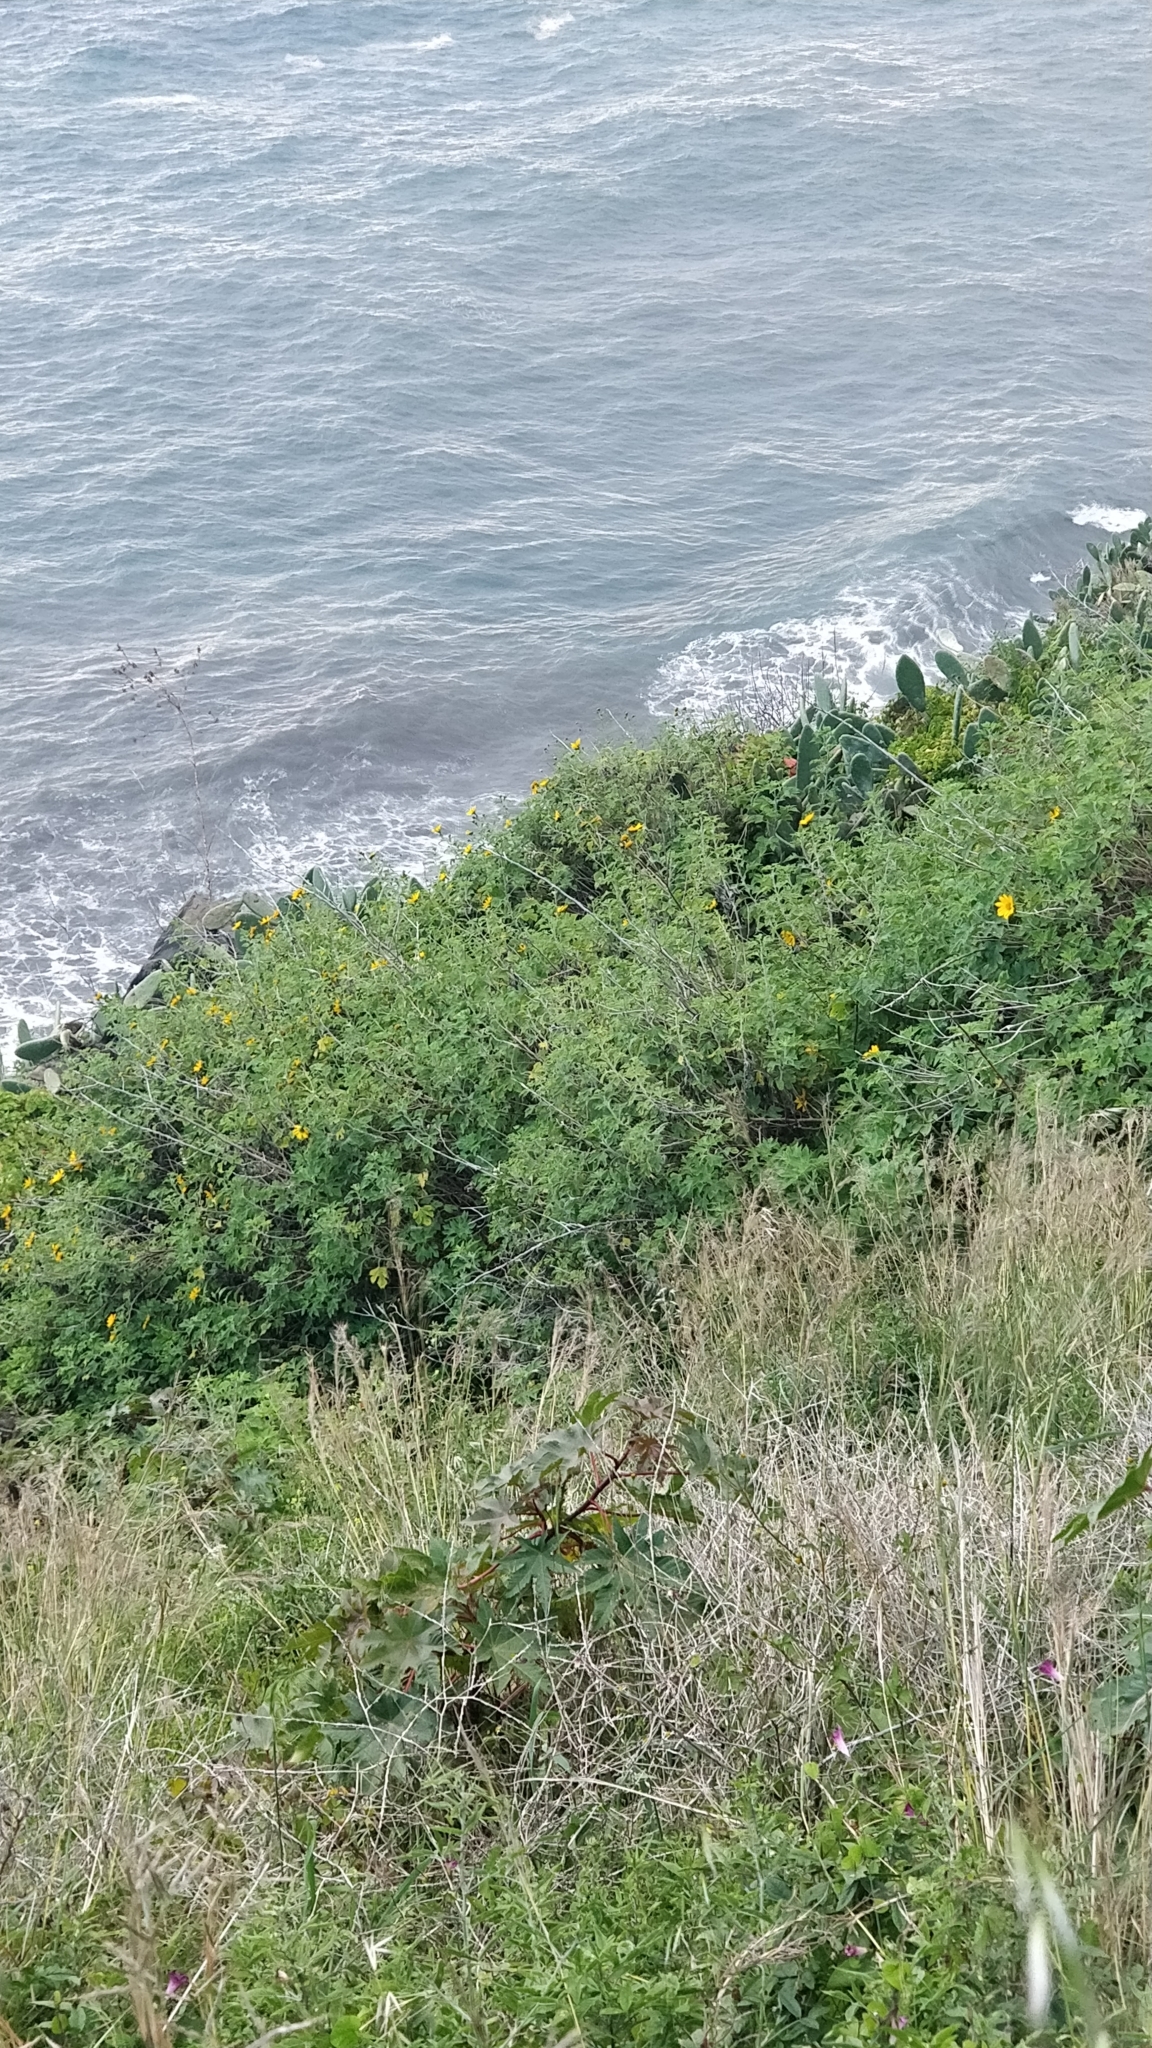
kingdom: Plantae
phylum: Tracheophyta
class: Magnoliopsida
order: Asterales
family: Asteraceae
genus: Tithonia
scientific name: Tithonia diversifolia
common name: Tree marigold
